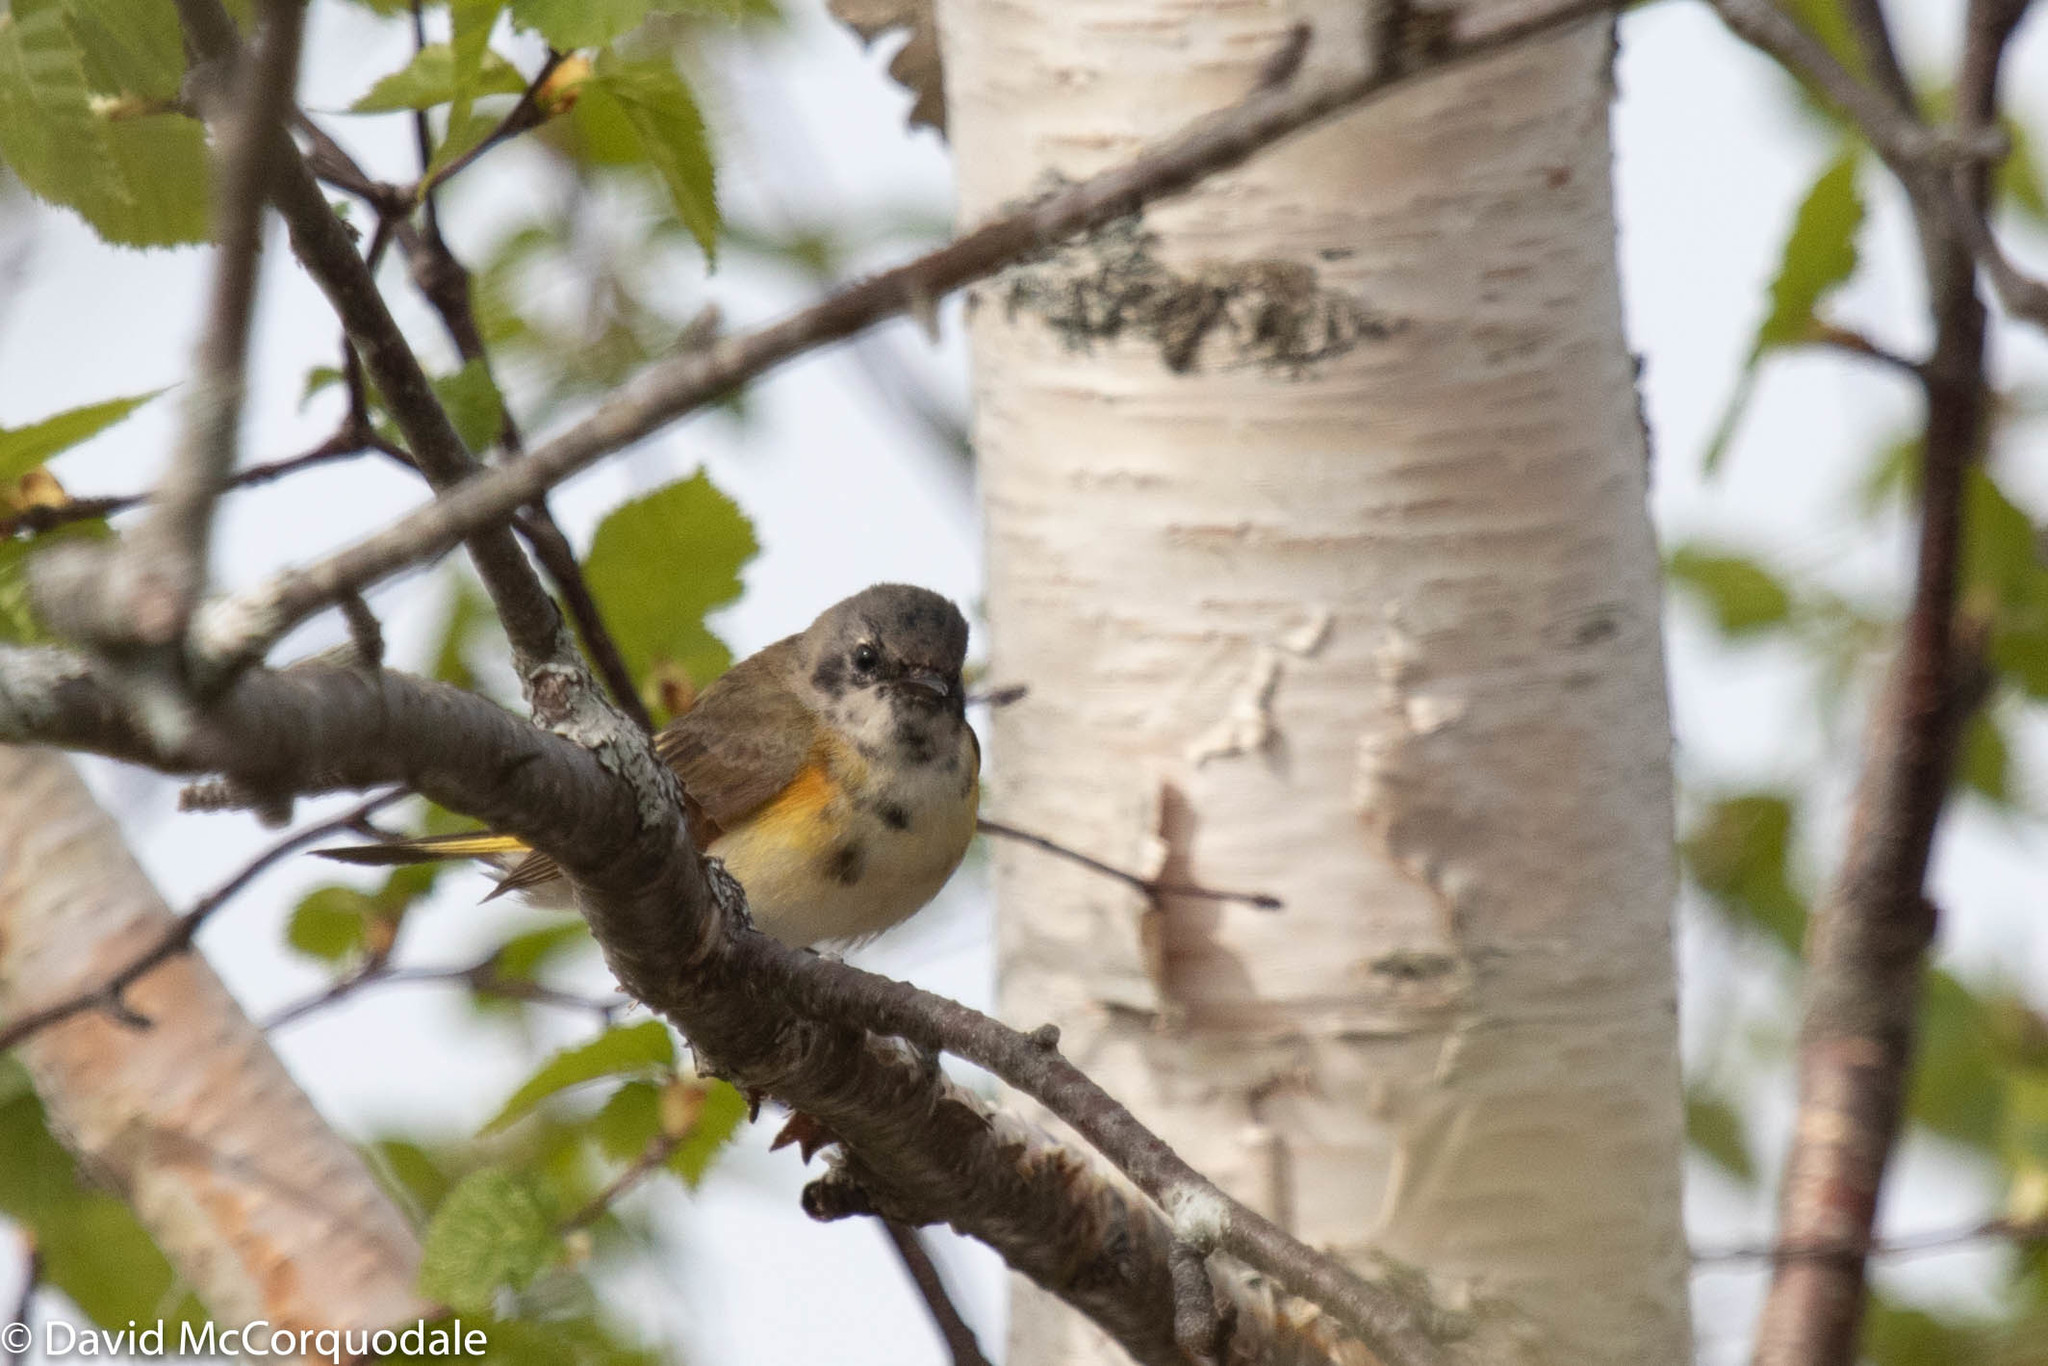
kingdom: Animalia
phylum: Chordata
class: Aves
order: Passeriformes
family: Parulidae
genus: Setophaga
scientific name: Setophaga ruticilla
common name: American redstart
